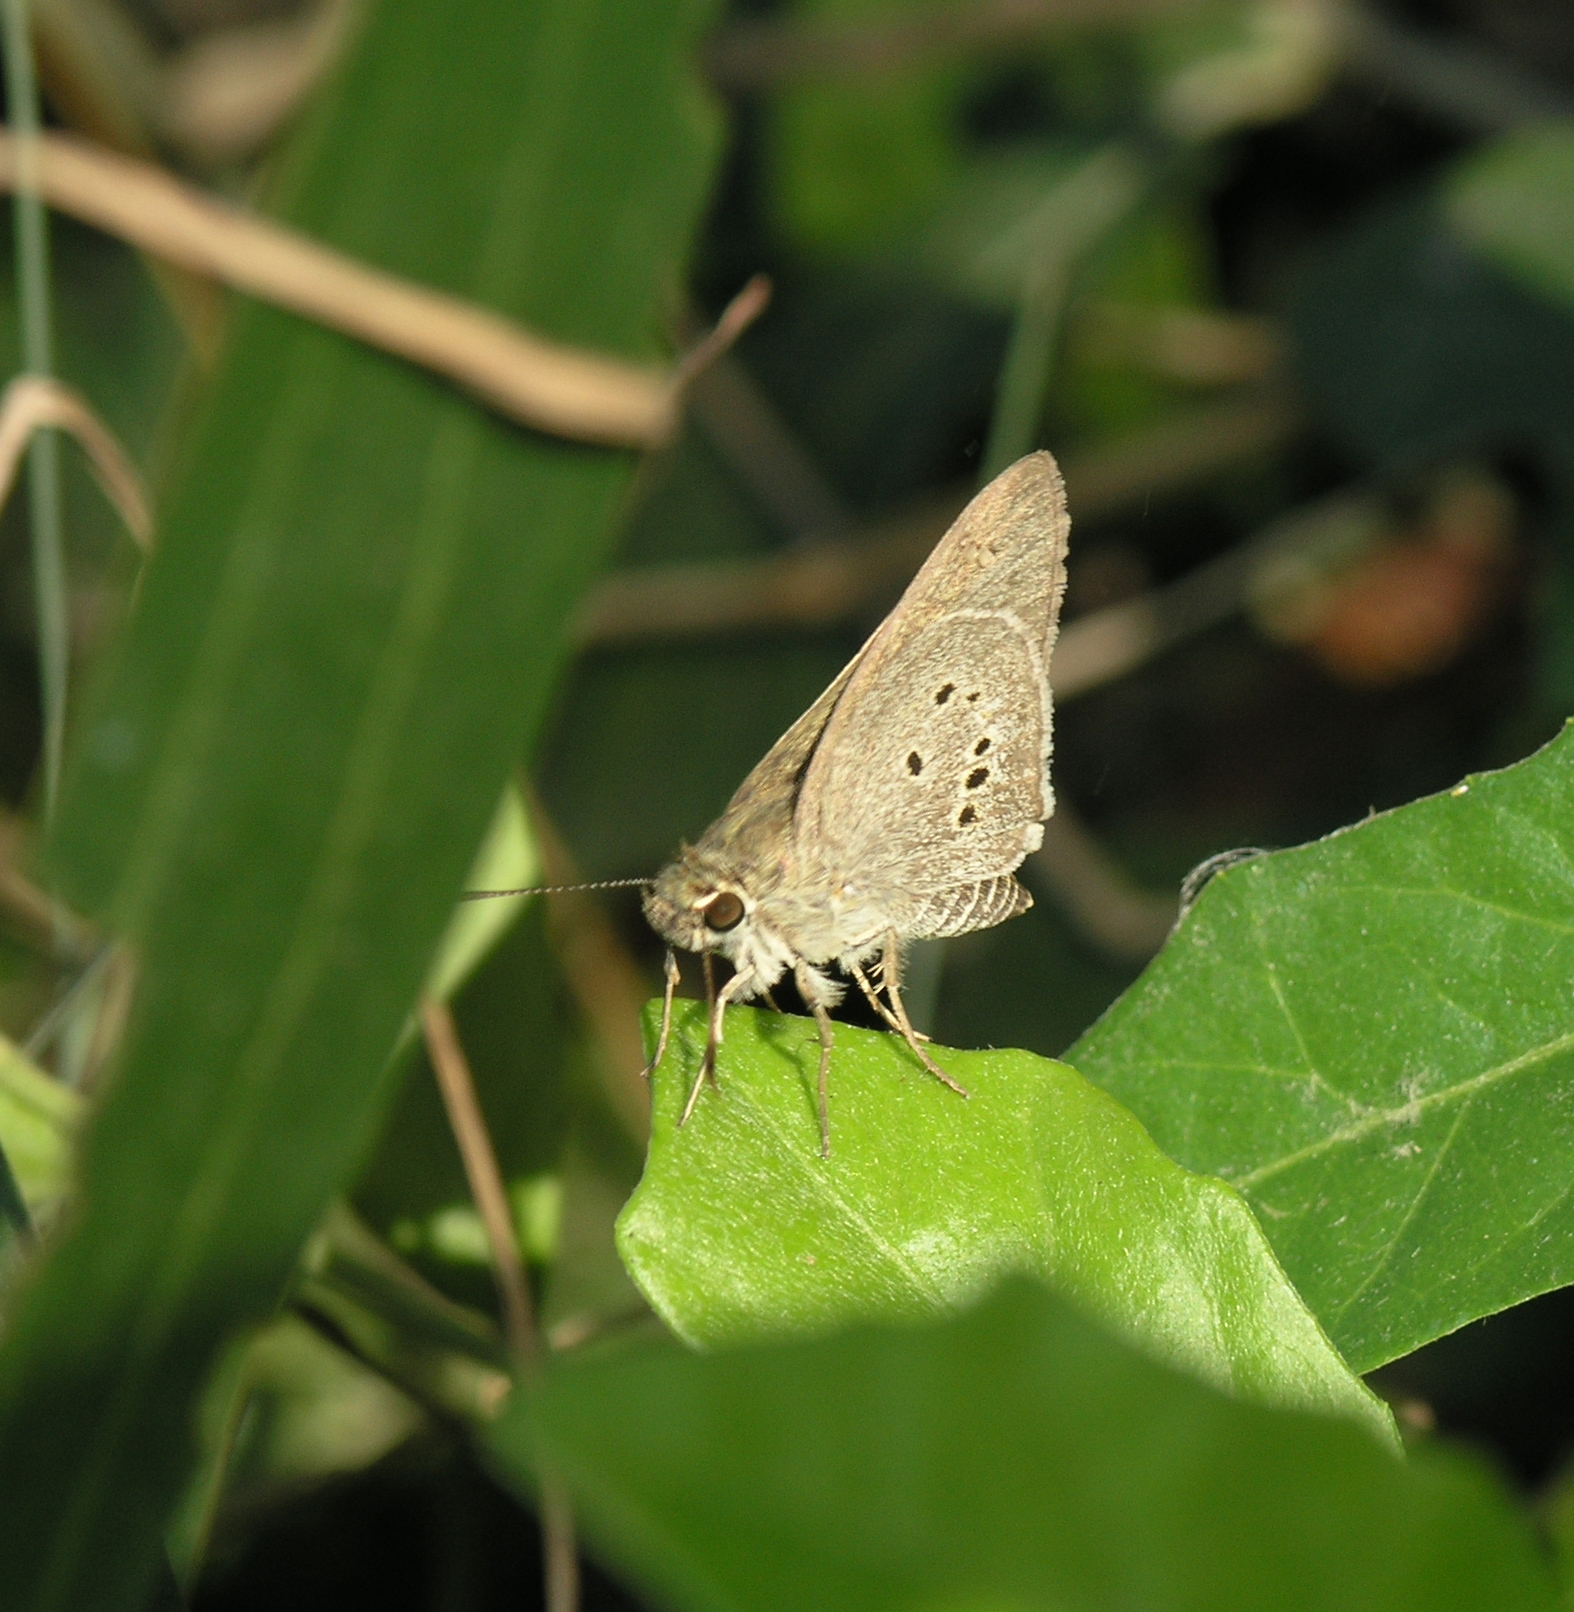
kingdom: Animalia
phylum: Arthropoda
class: Insecta
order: Lepidoptera
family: Hesperiidae
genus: Suastus
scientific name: Suastus gremius
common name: Indian palm bob
